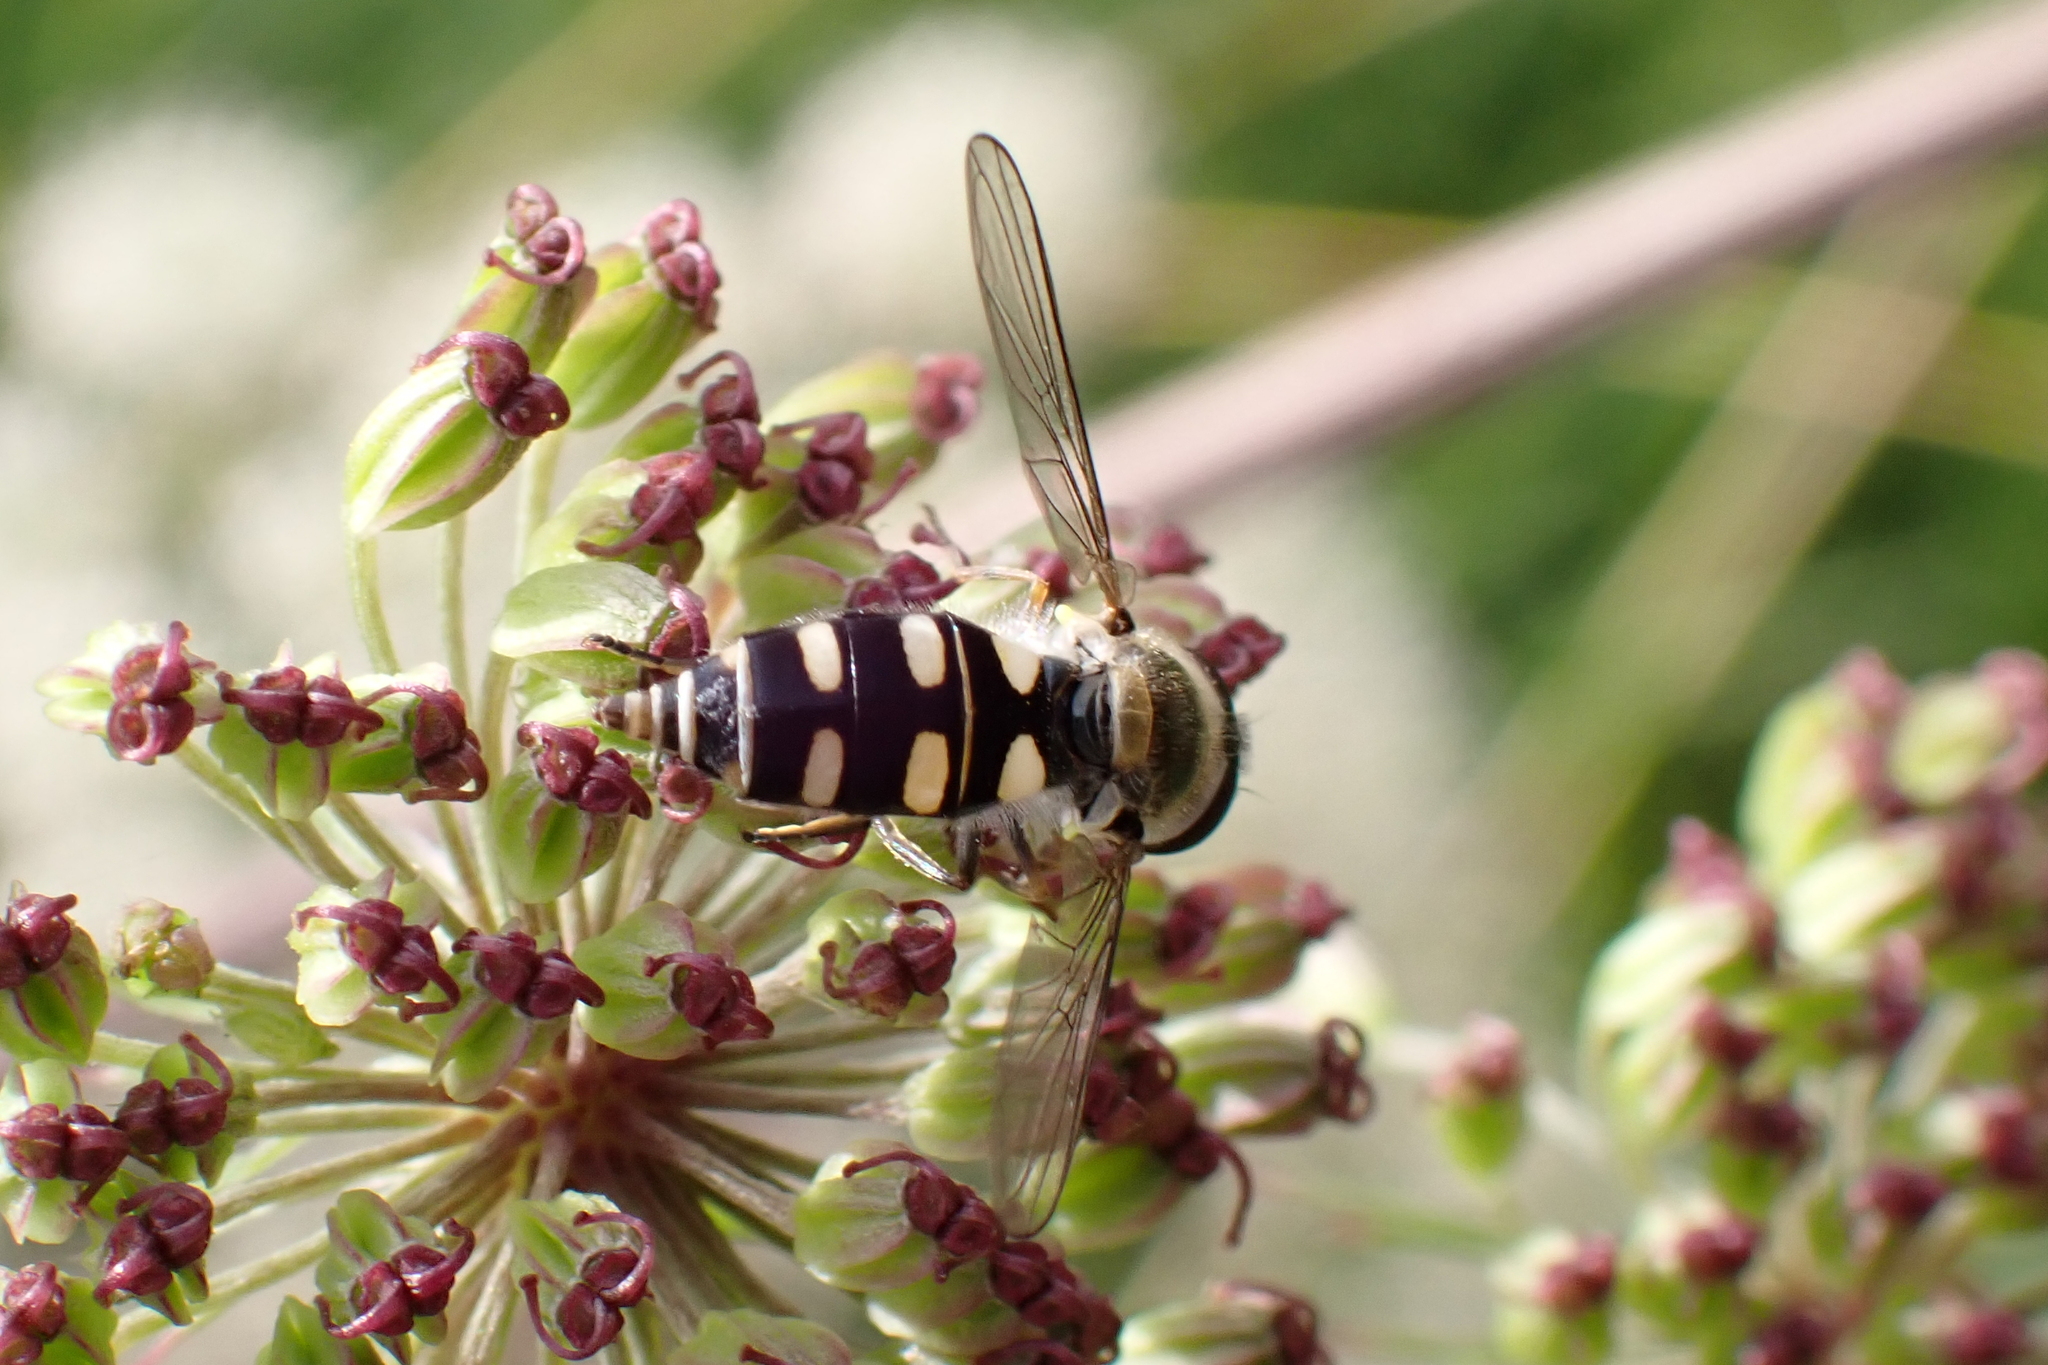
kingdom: Animalia
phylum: Arthropoda
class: Insecta
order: Diptera
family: Syrphidae
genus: Melangyna
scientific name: Melangyna umbellatarum
